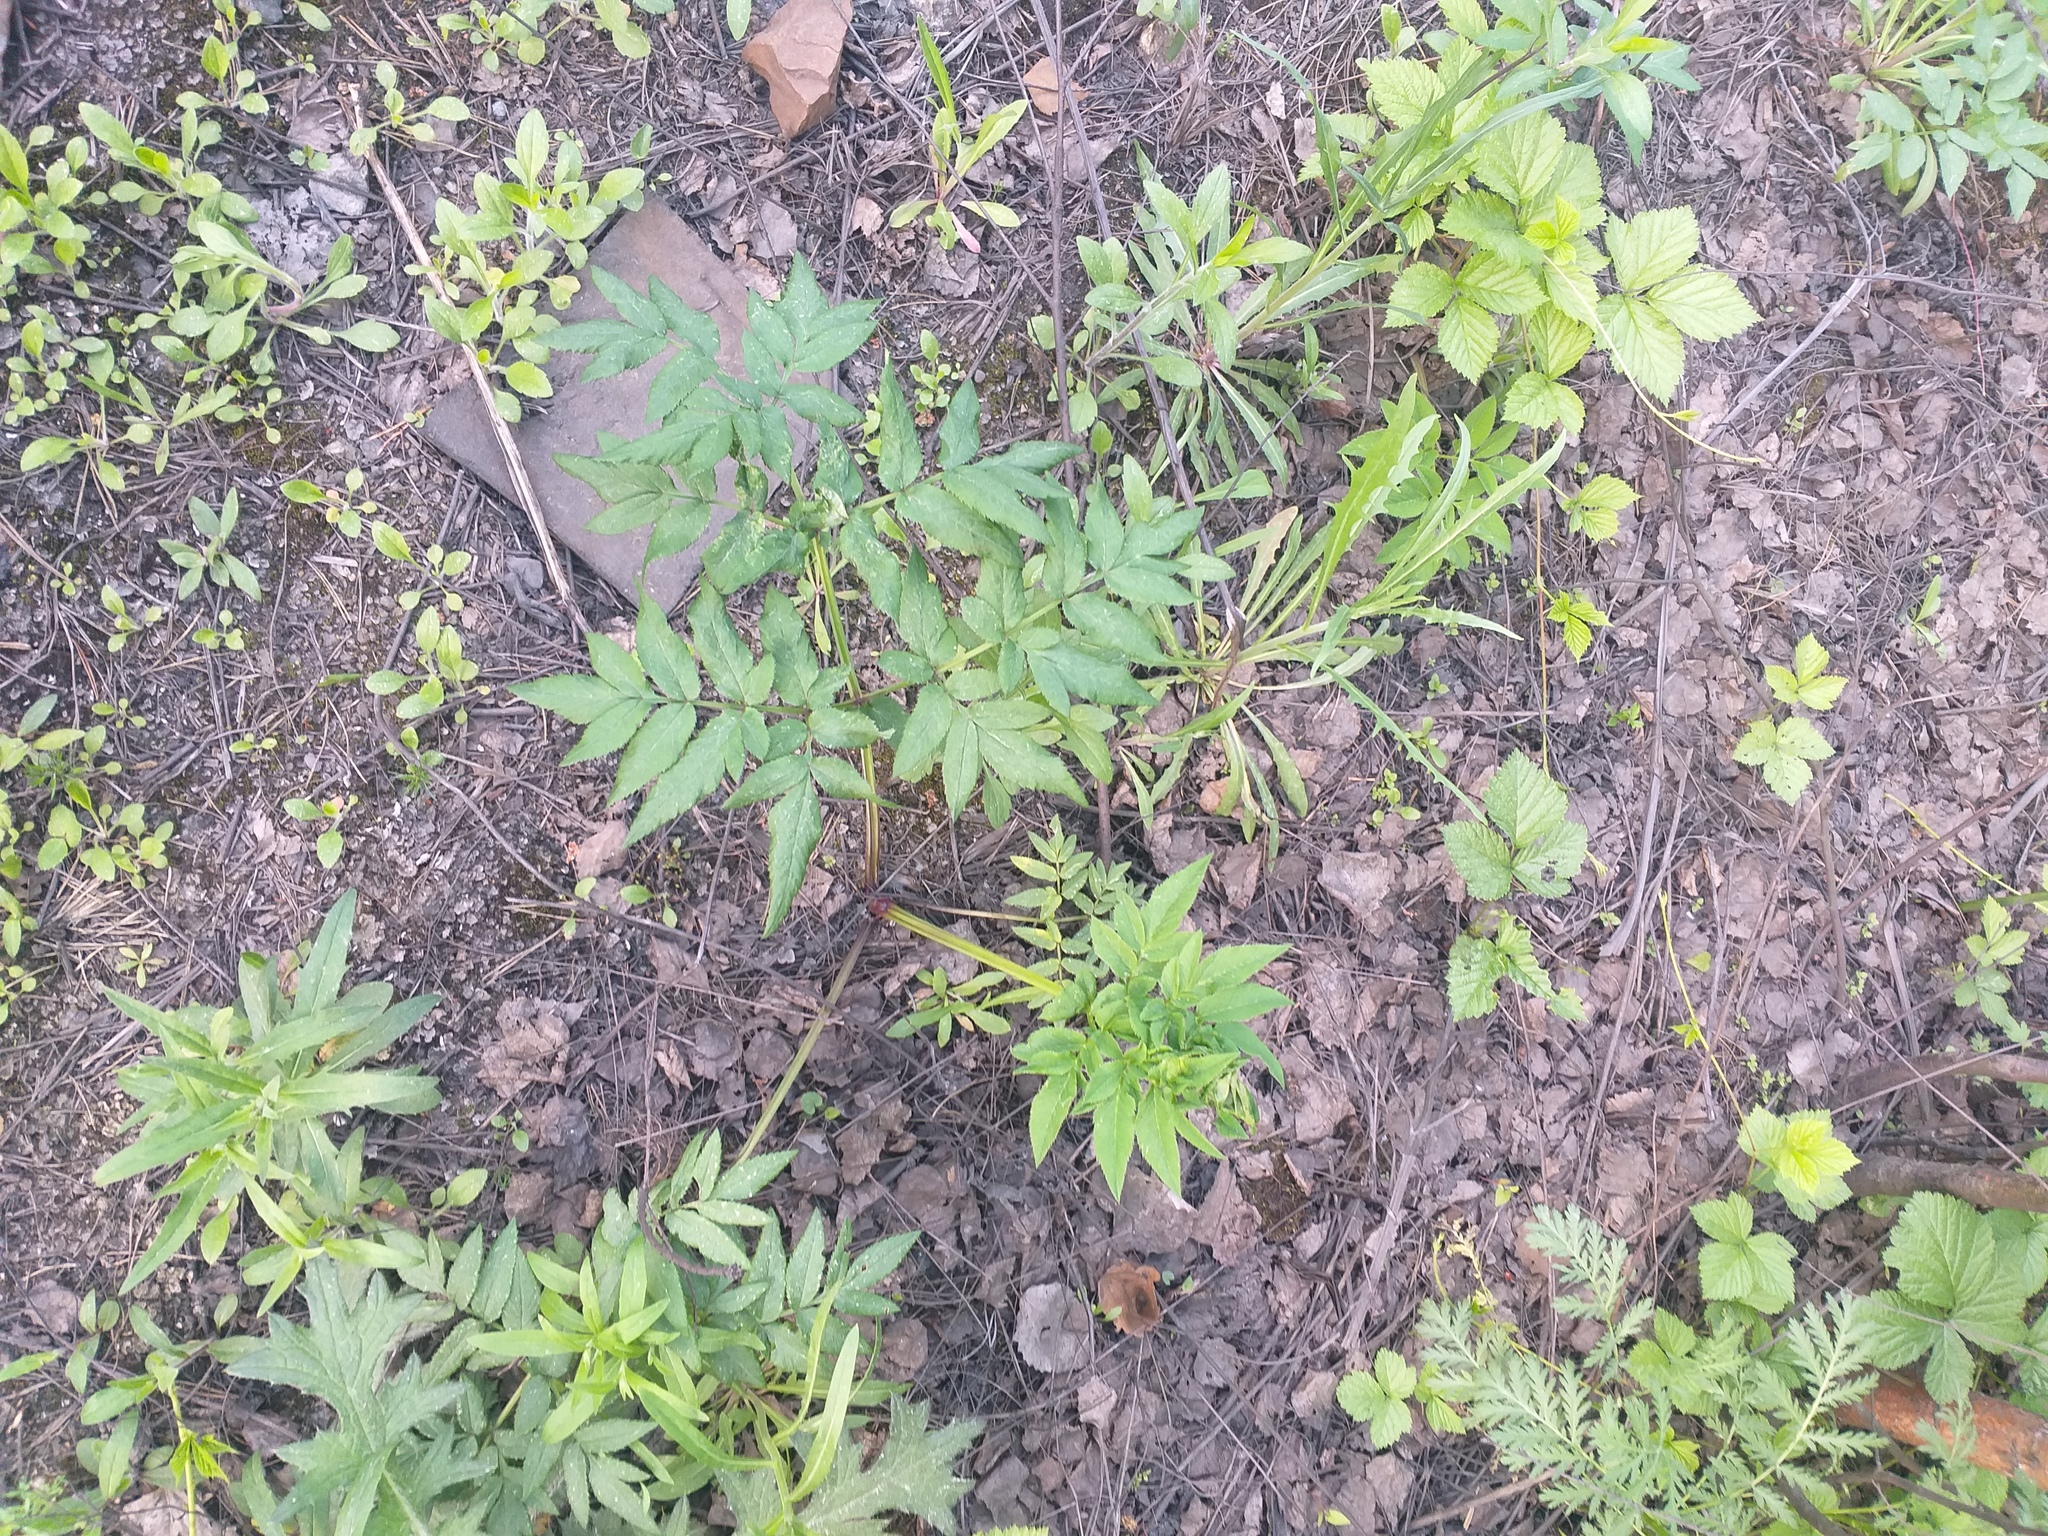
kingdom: Plantae
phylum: Tracheophyta
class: Magnoliopsida
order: Apiales
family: Apiaceae
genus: Angelica
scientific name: Angelica sylvestris
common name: Wild angelica
